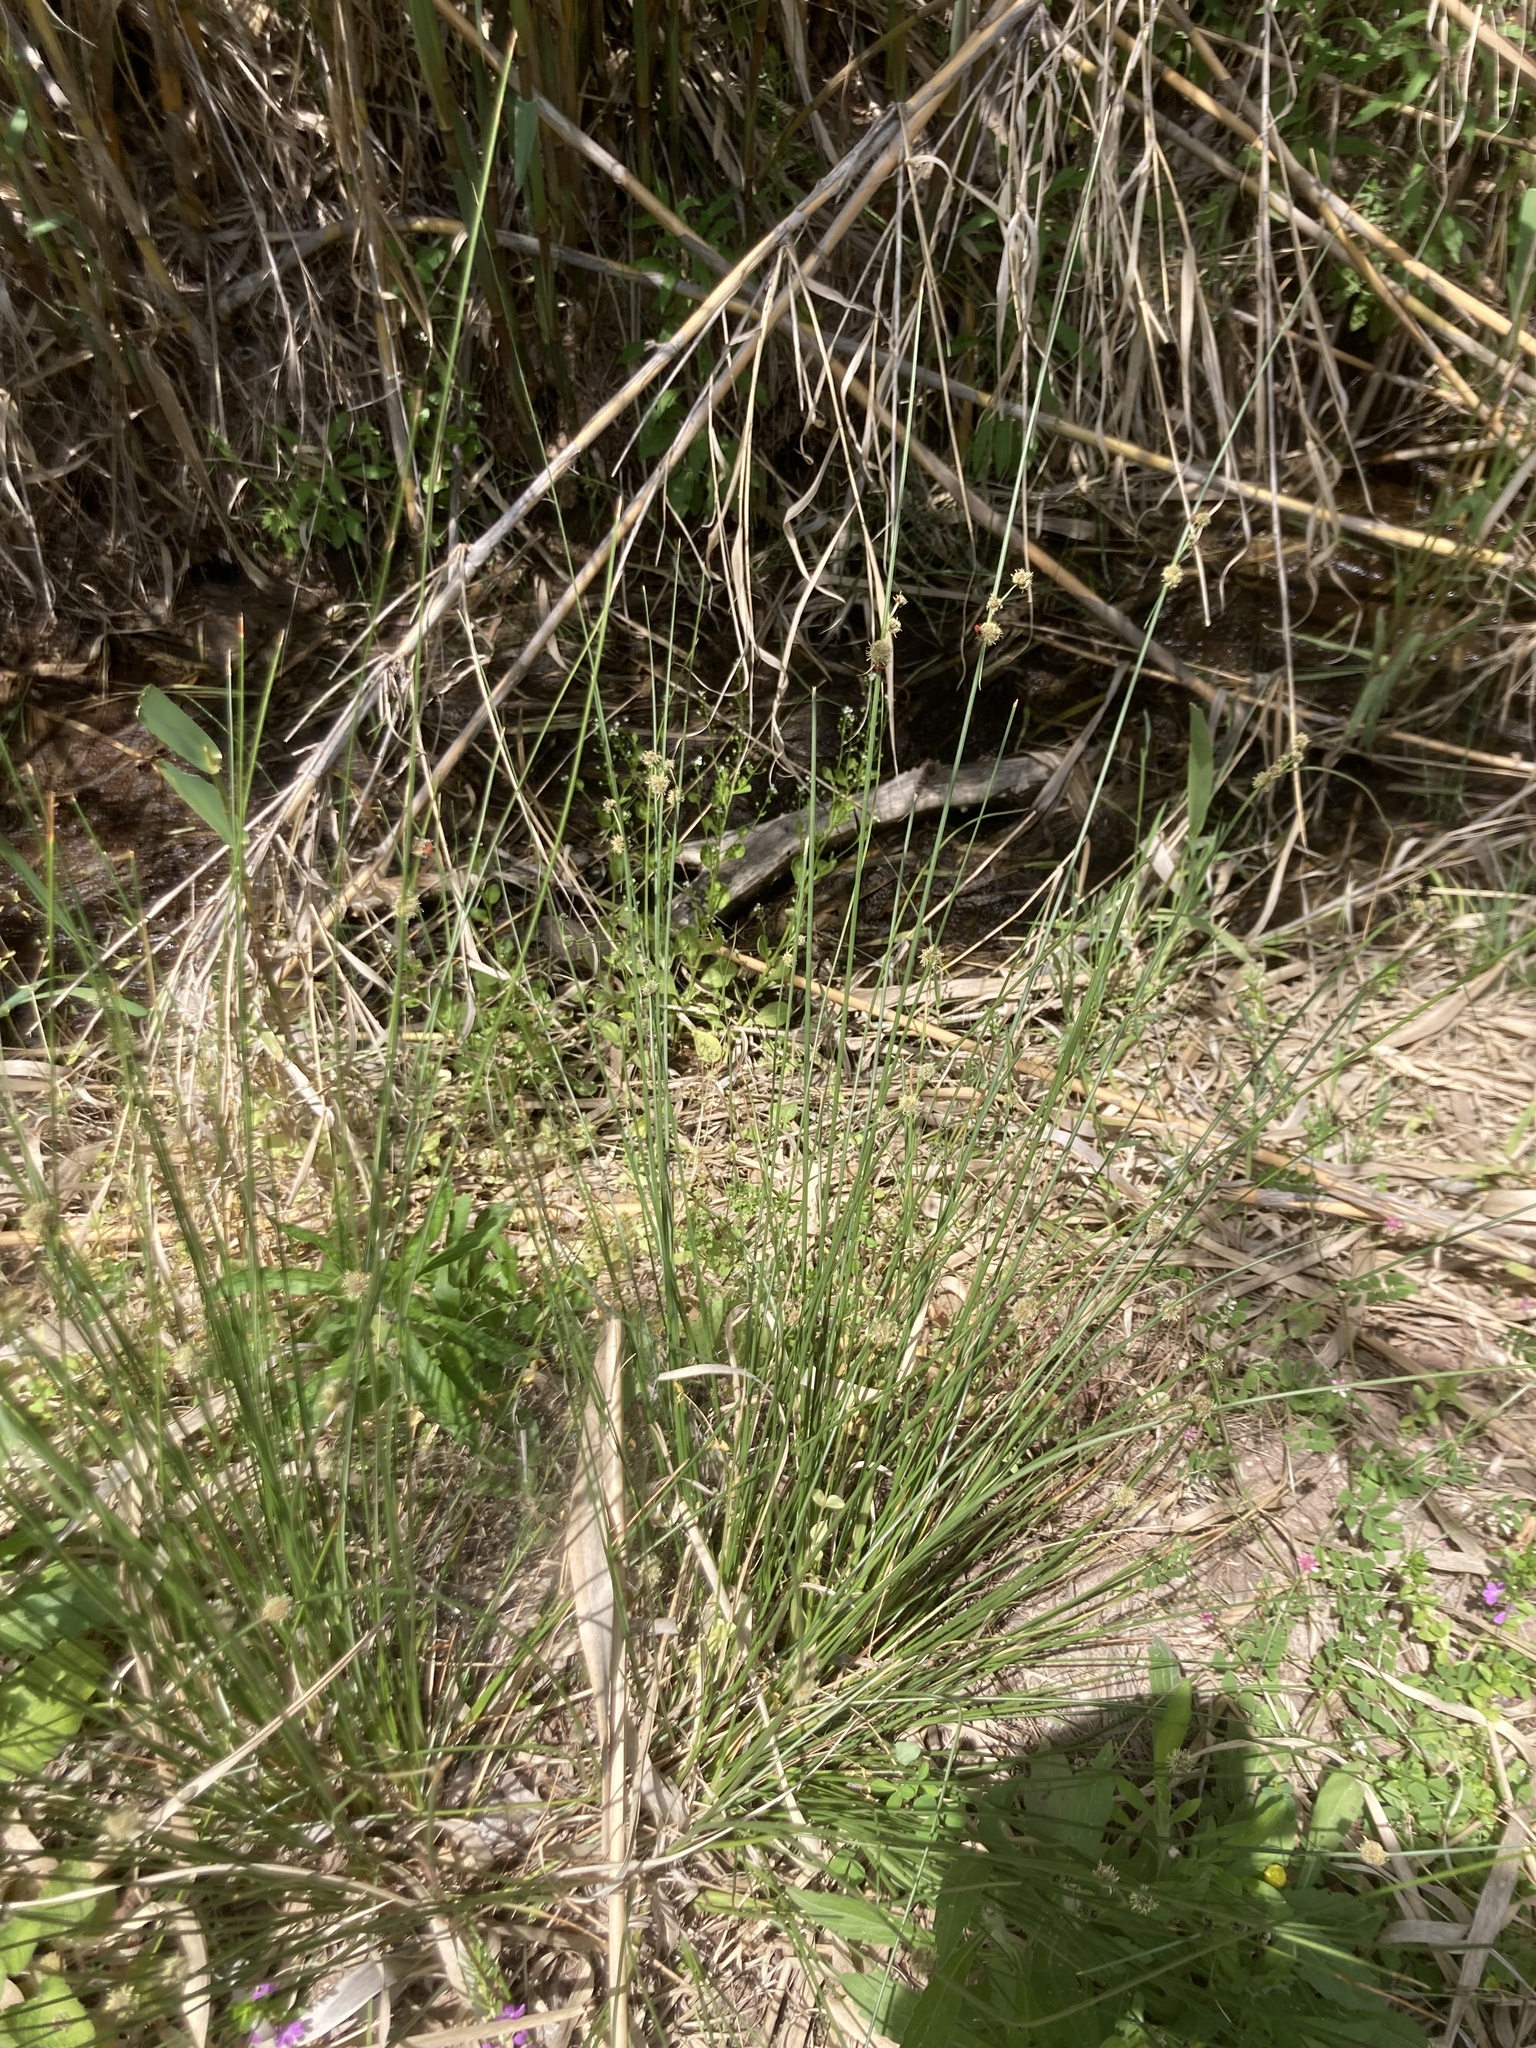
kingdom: Plantae
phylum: Tracheophyta
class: Liliopsida
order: Poales
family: Cyperaceae
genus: Scirpoides
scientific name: Scirpoides holoschoenus
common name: Round-headed club-rush
